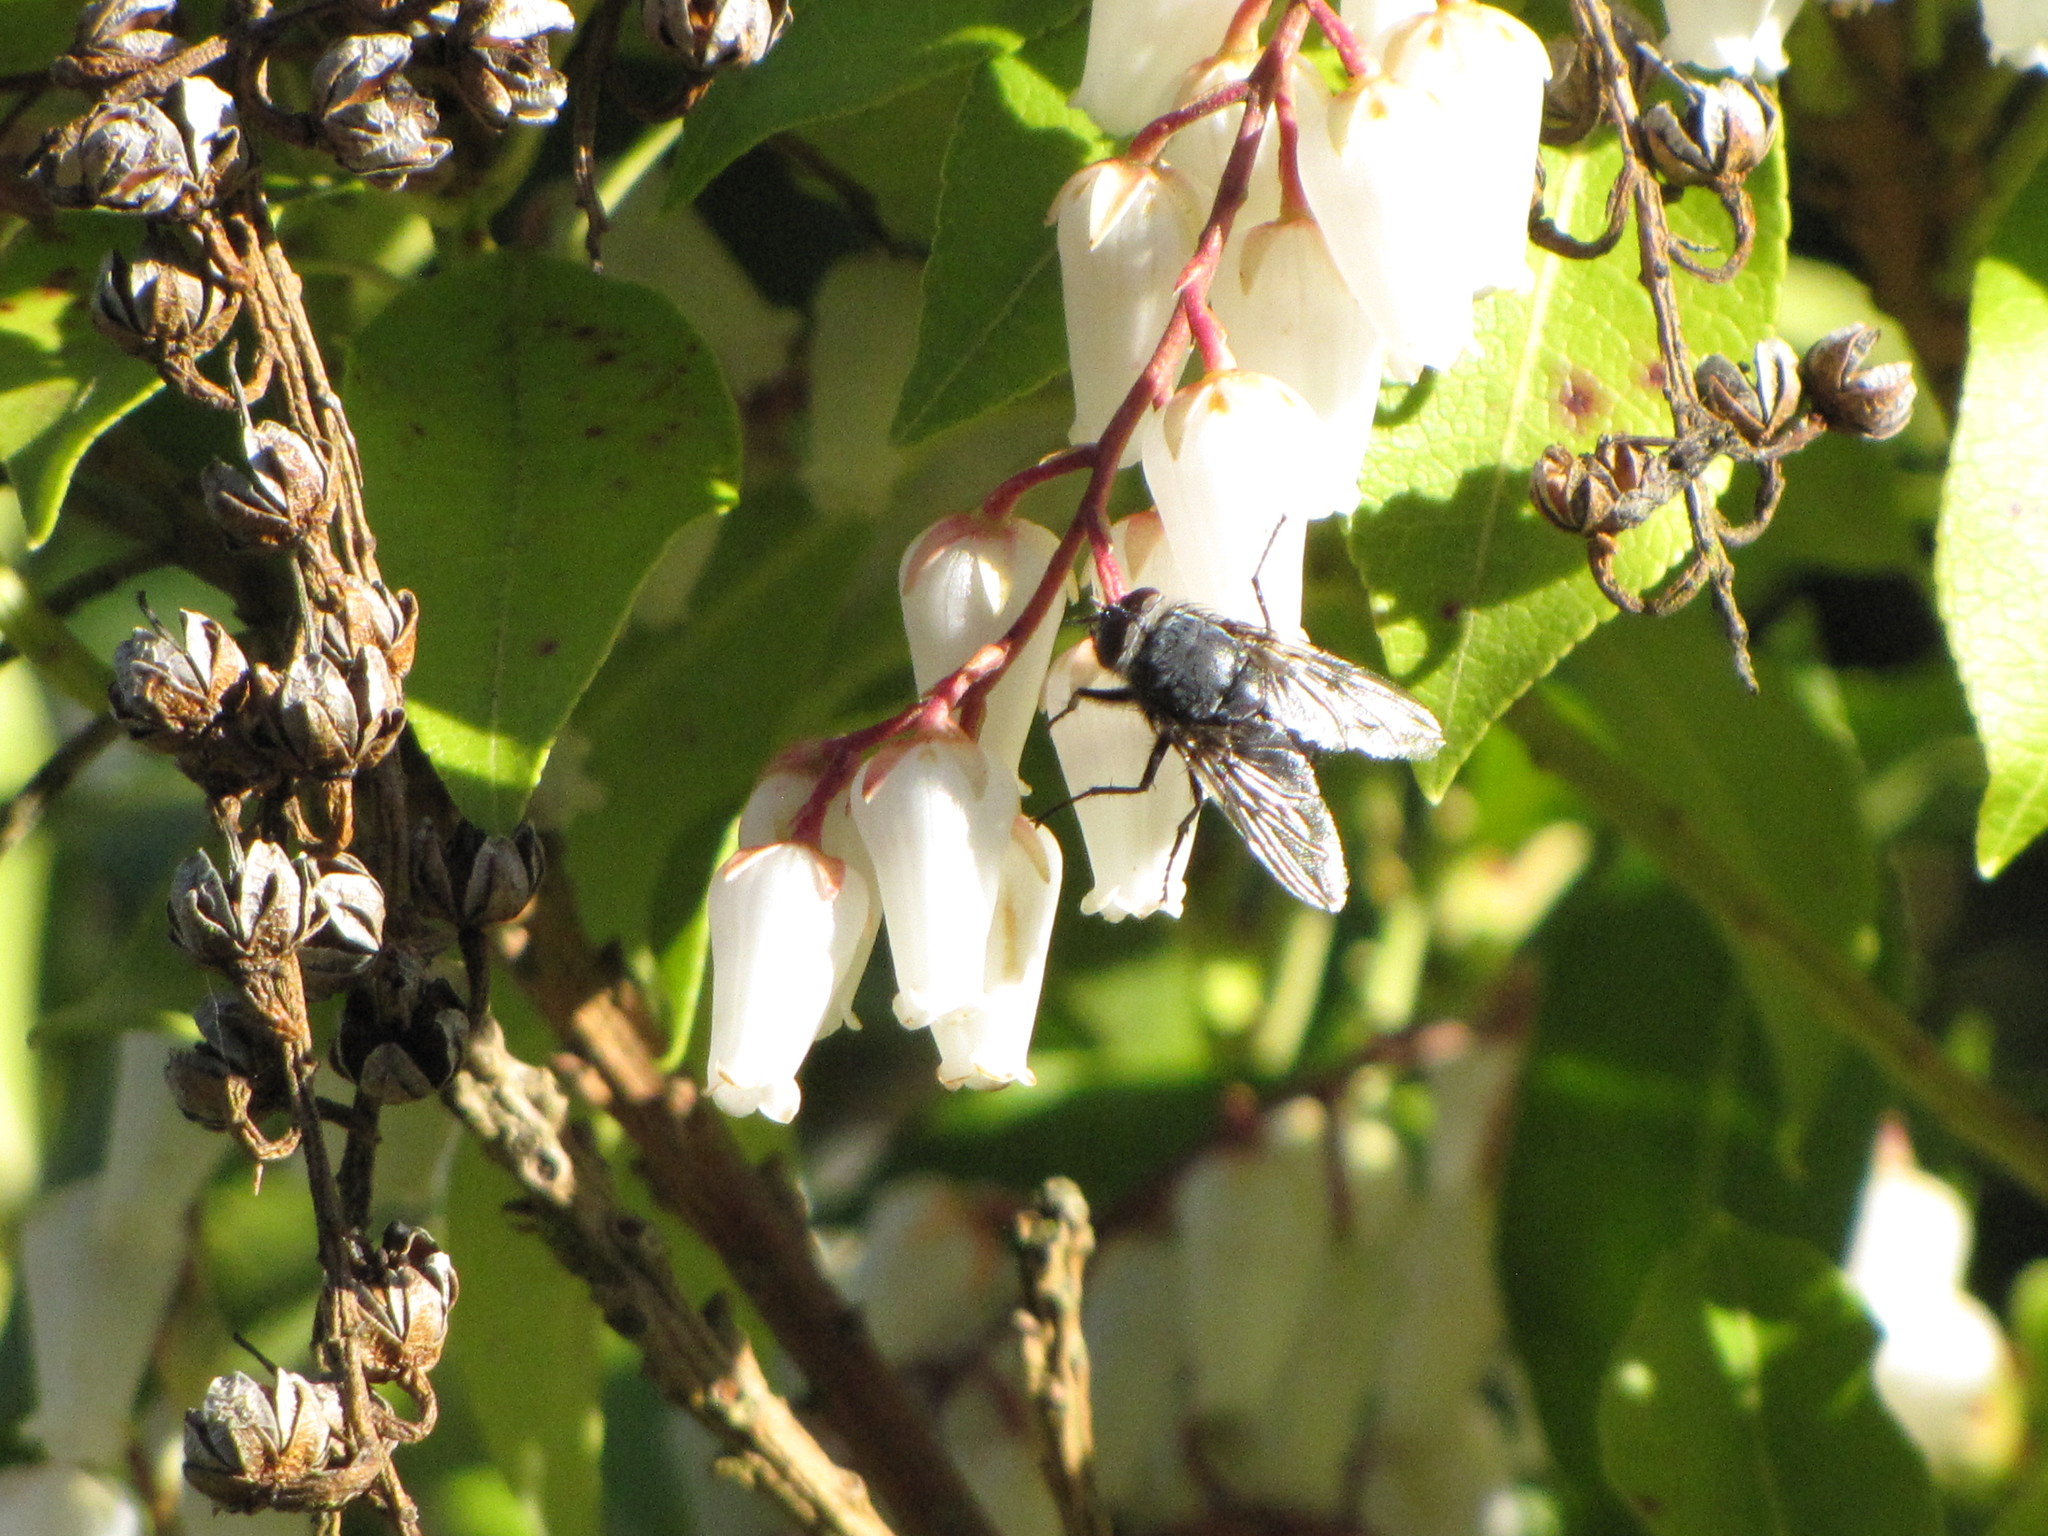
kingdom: Animalia
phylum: Arthropoda
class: Insecta
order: Diptera
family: Calliphoridae
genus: Calliphora
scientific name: Calliphora vicina
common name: Common blow flie
